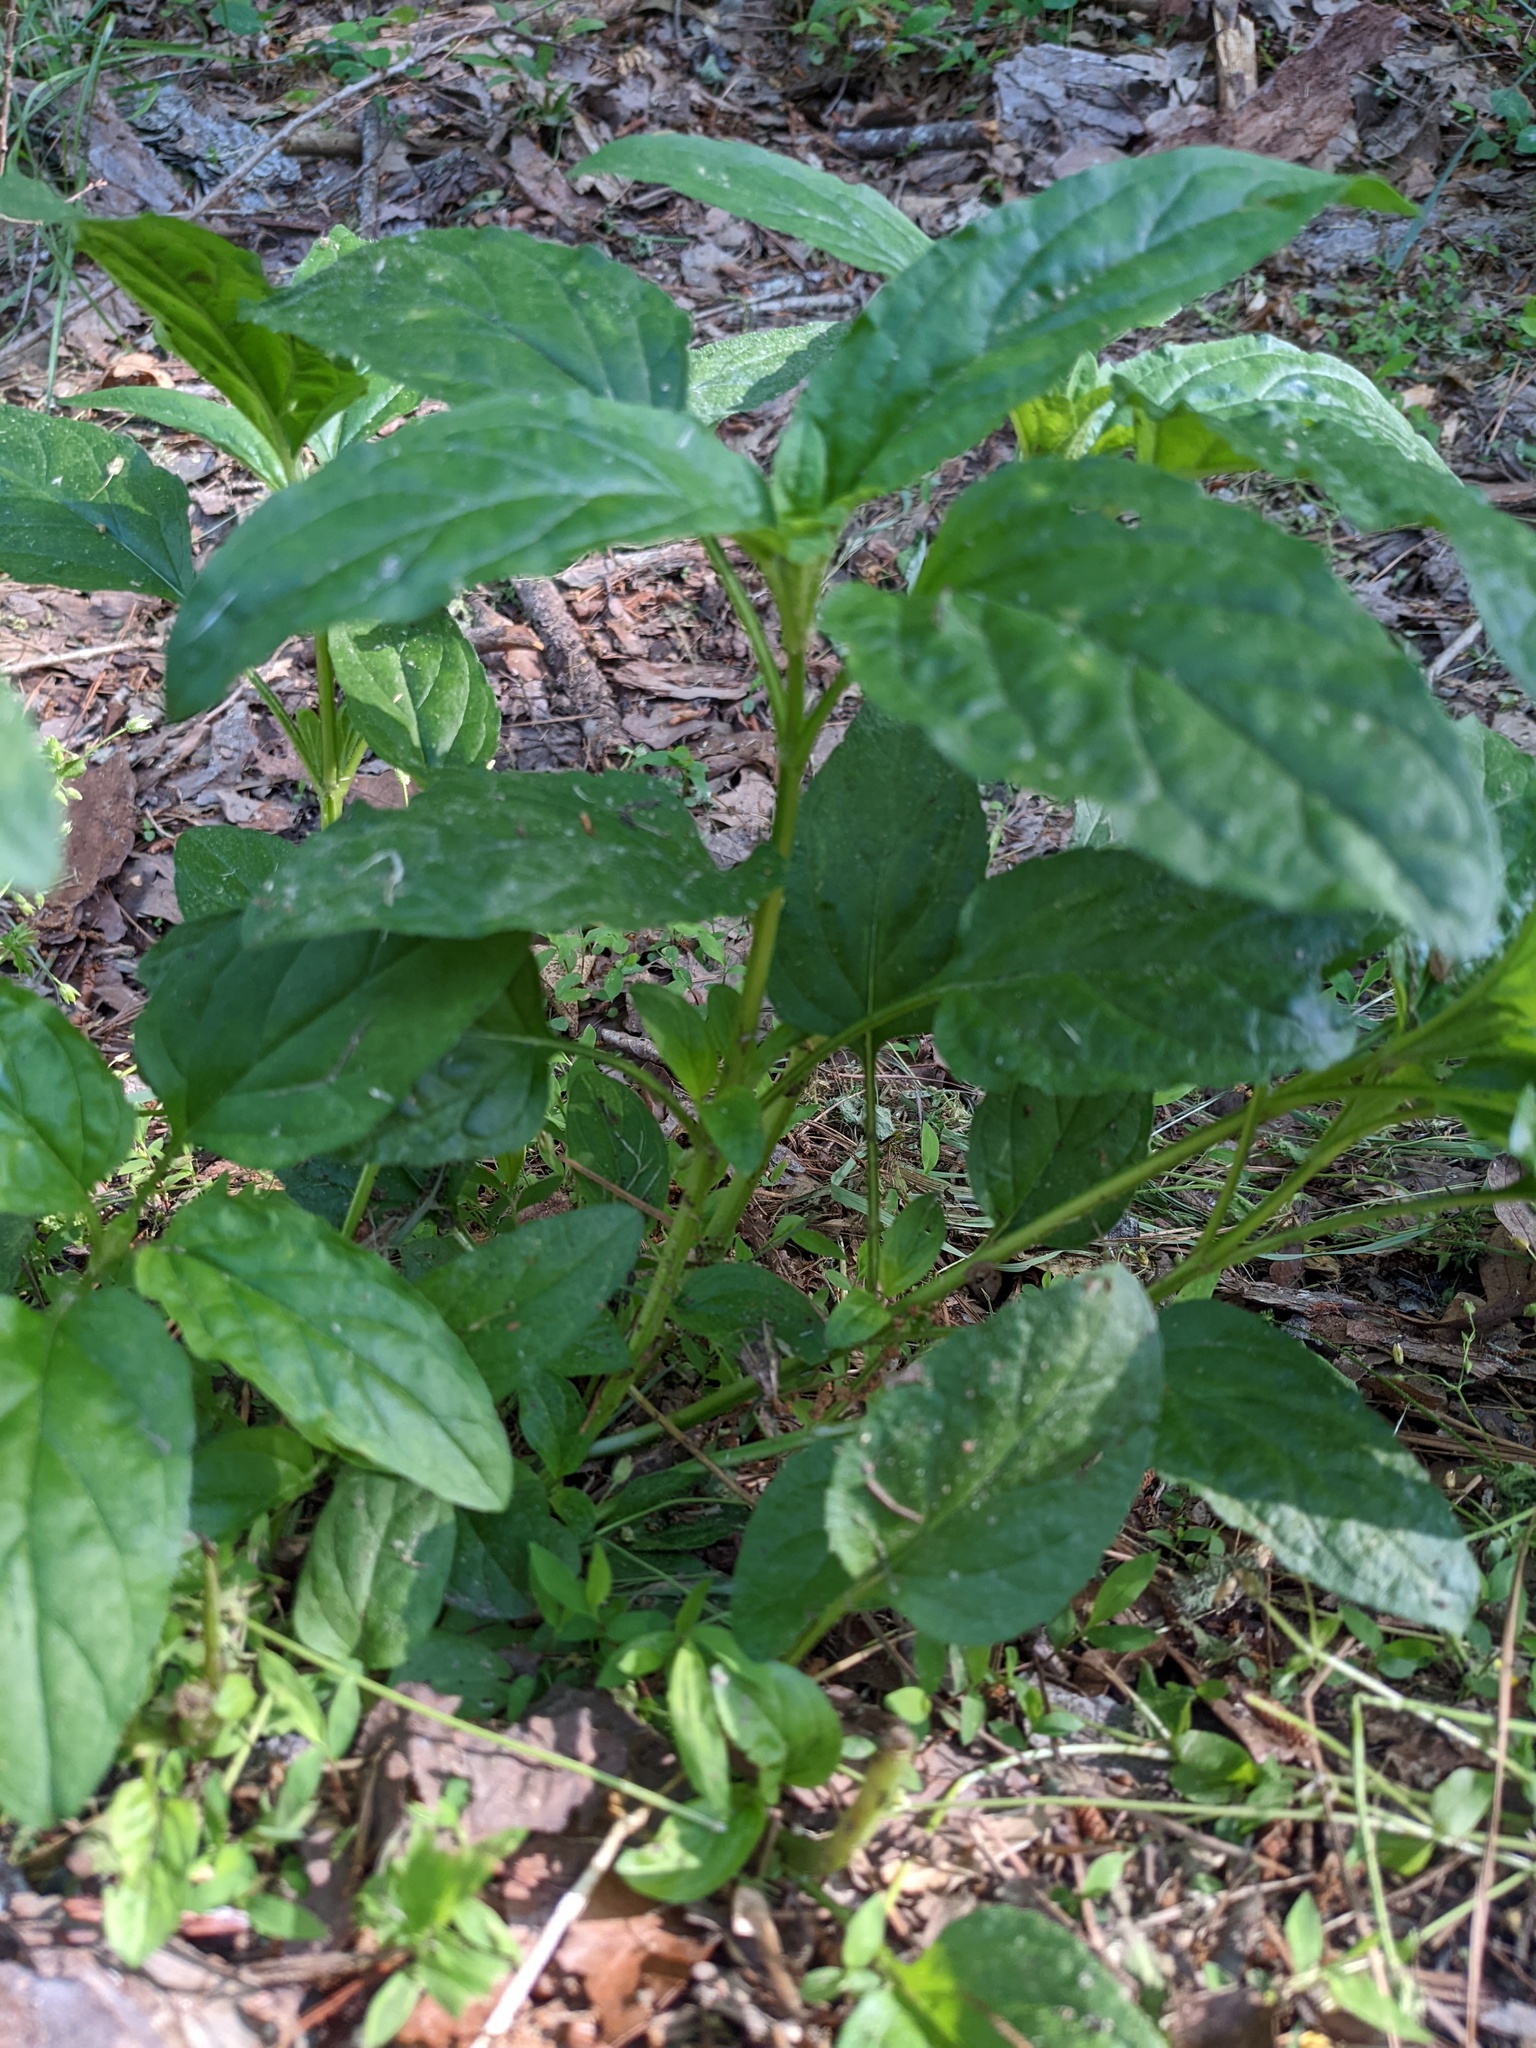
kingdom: Plantae
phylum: Tracheophyta
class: Magnoliopsida
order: Lamiales
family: Lamiaceae
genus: Prunella
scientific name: Prunella vulgaris
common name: Heal-all
